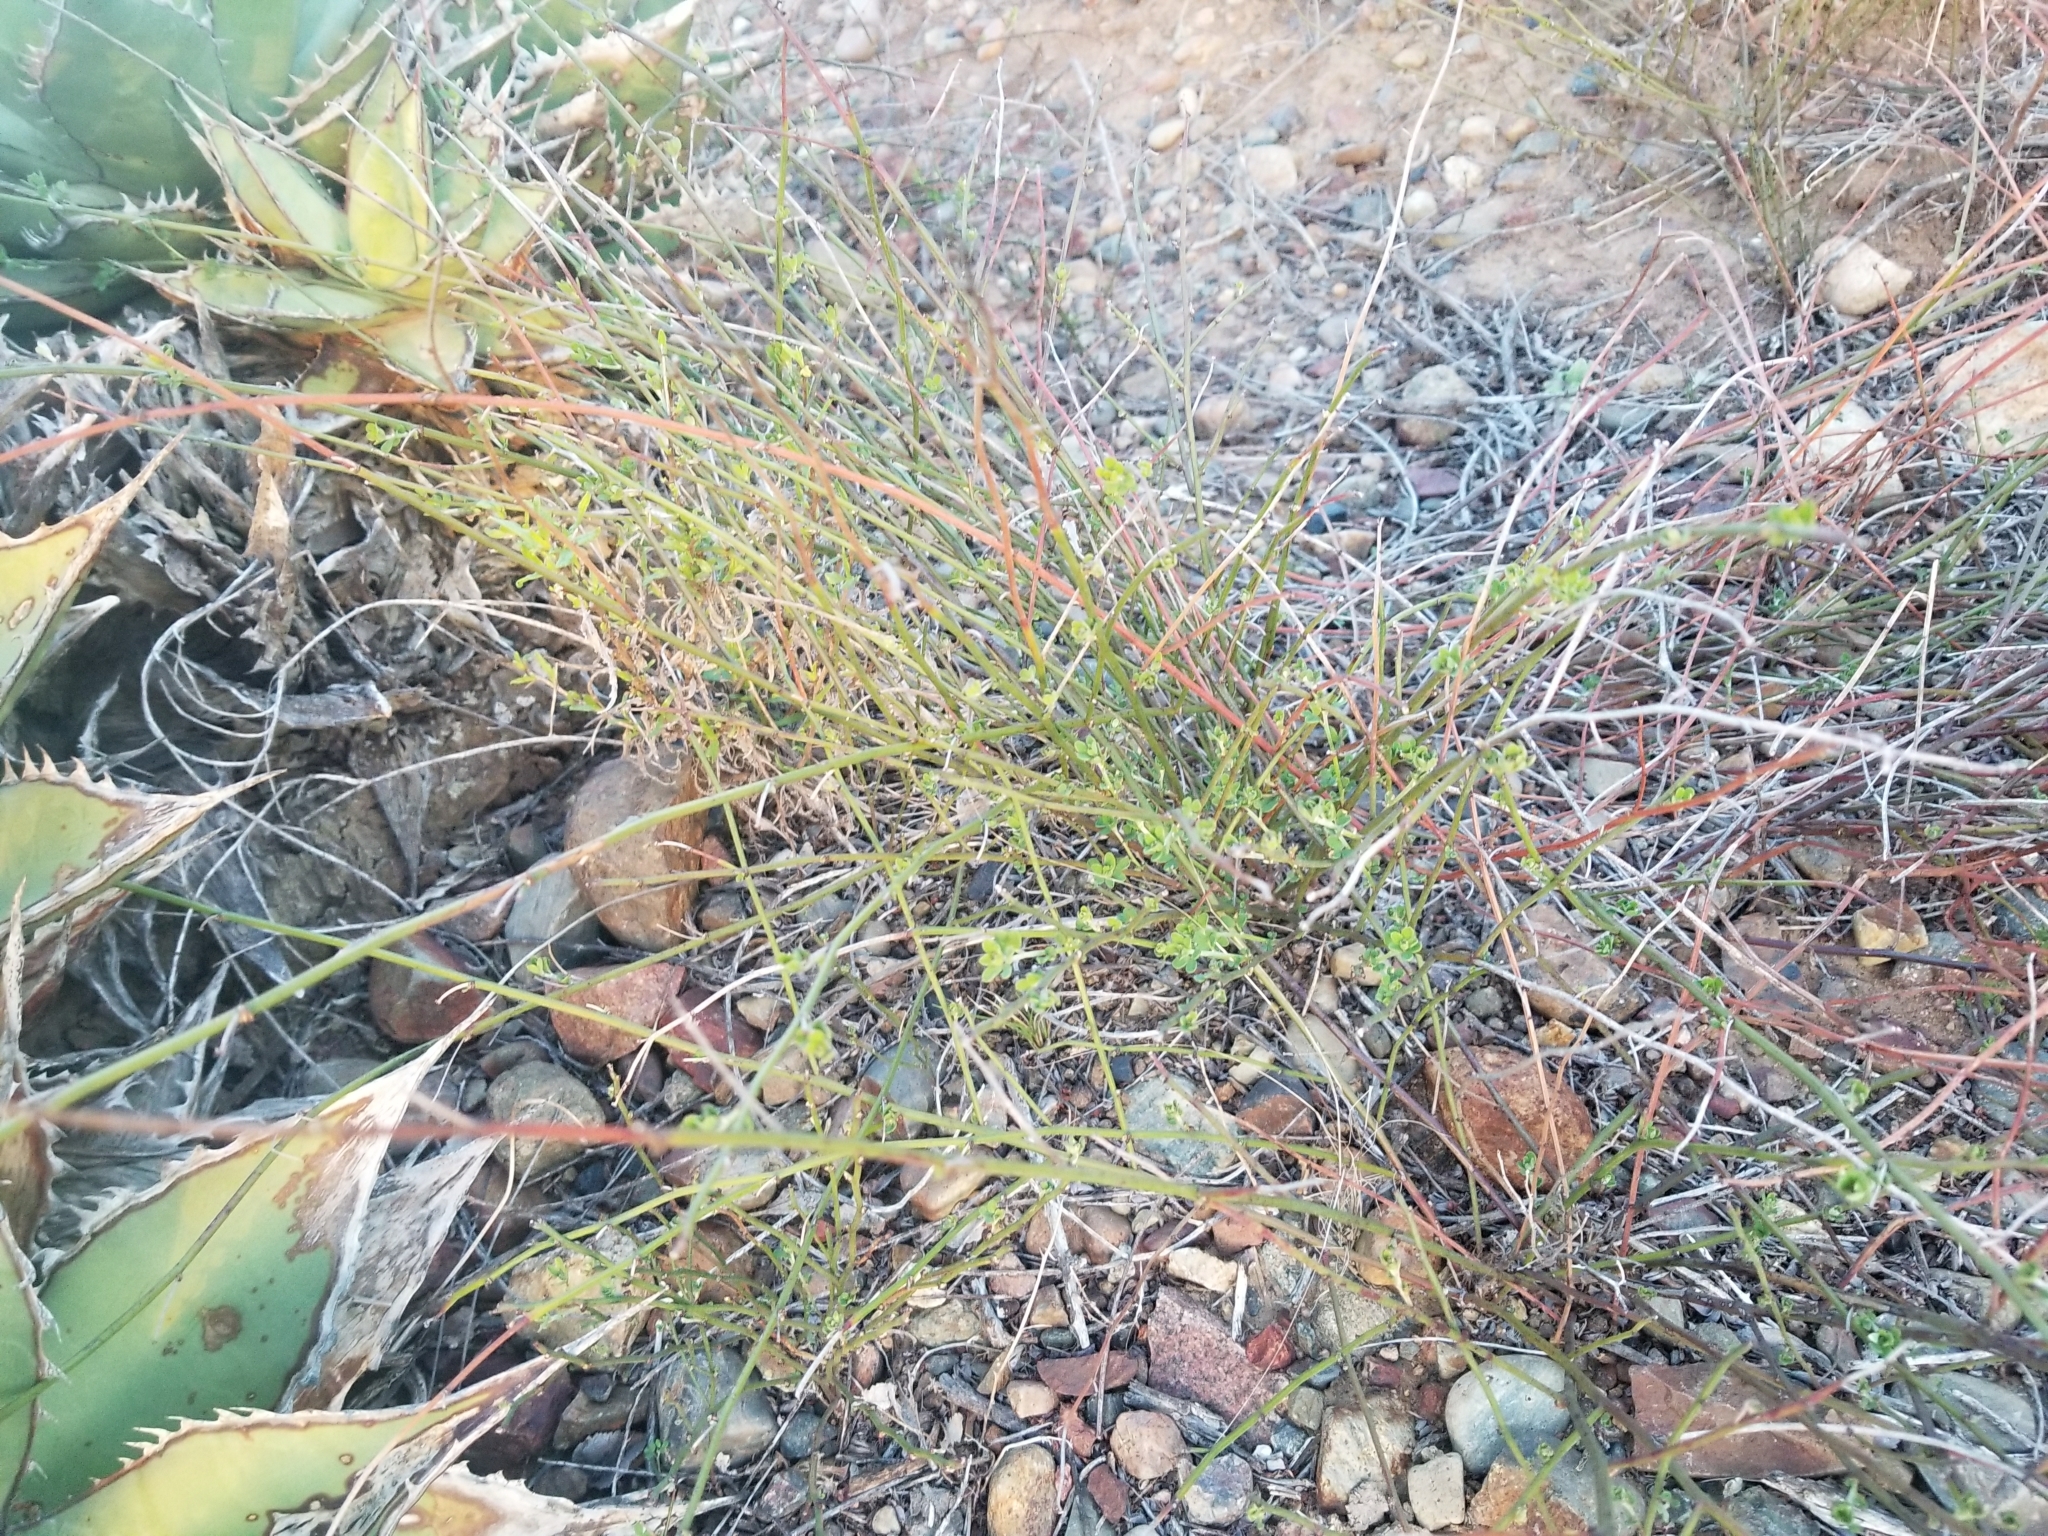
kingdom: Plantae
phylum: Tracheophyta
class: Magnoliopsida
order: Fabales
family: Fabaceae
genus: Acmispon
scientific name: Acmispon glaber
